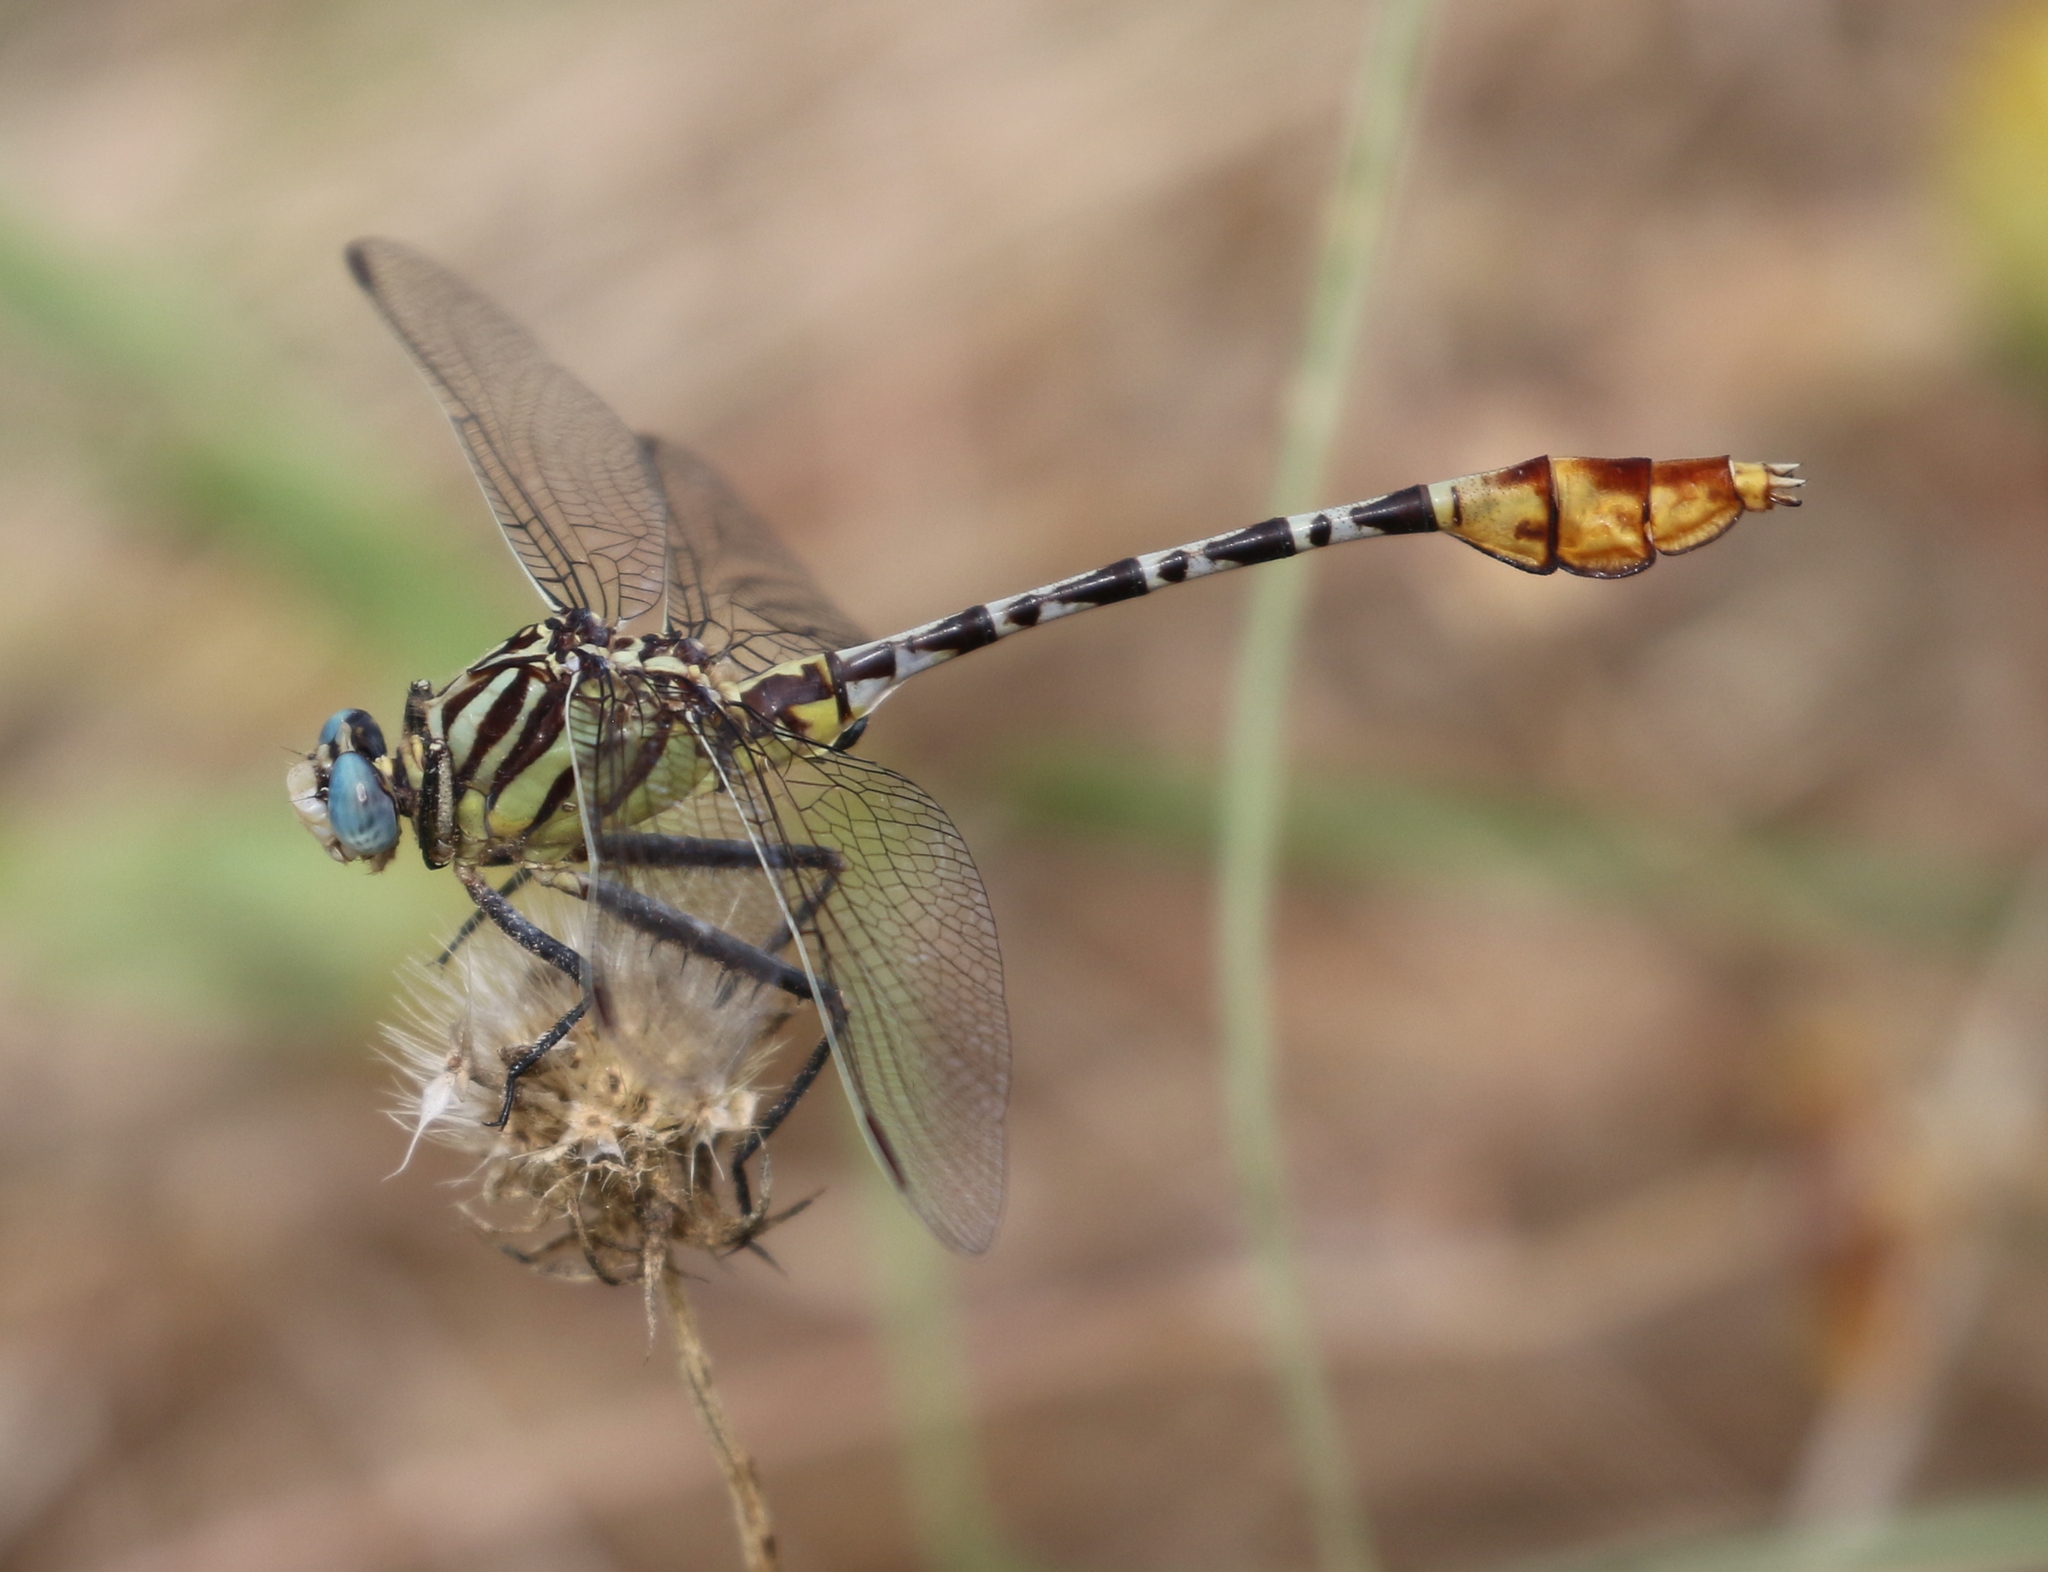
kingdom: Animalia
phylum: Arthropoda
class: Insecta
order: Odonata
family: Gomphidae
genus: Dromogomphus
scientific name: Dromogomphus spoliatus
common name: Flag-tailed spinyleg
